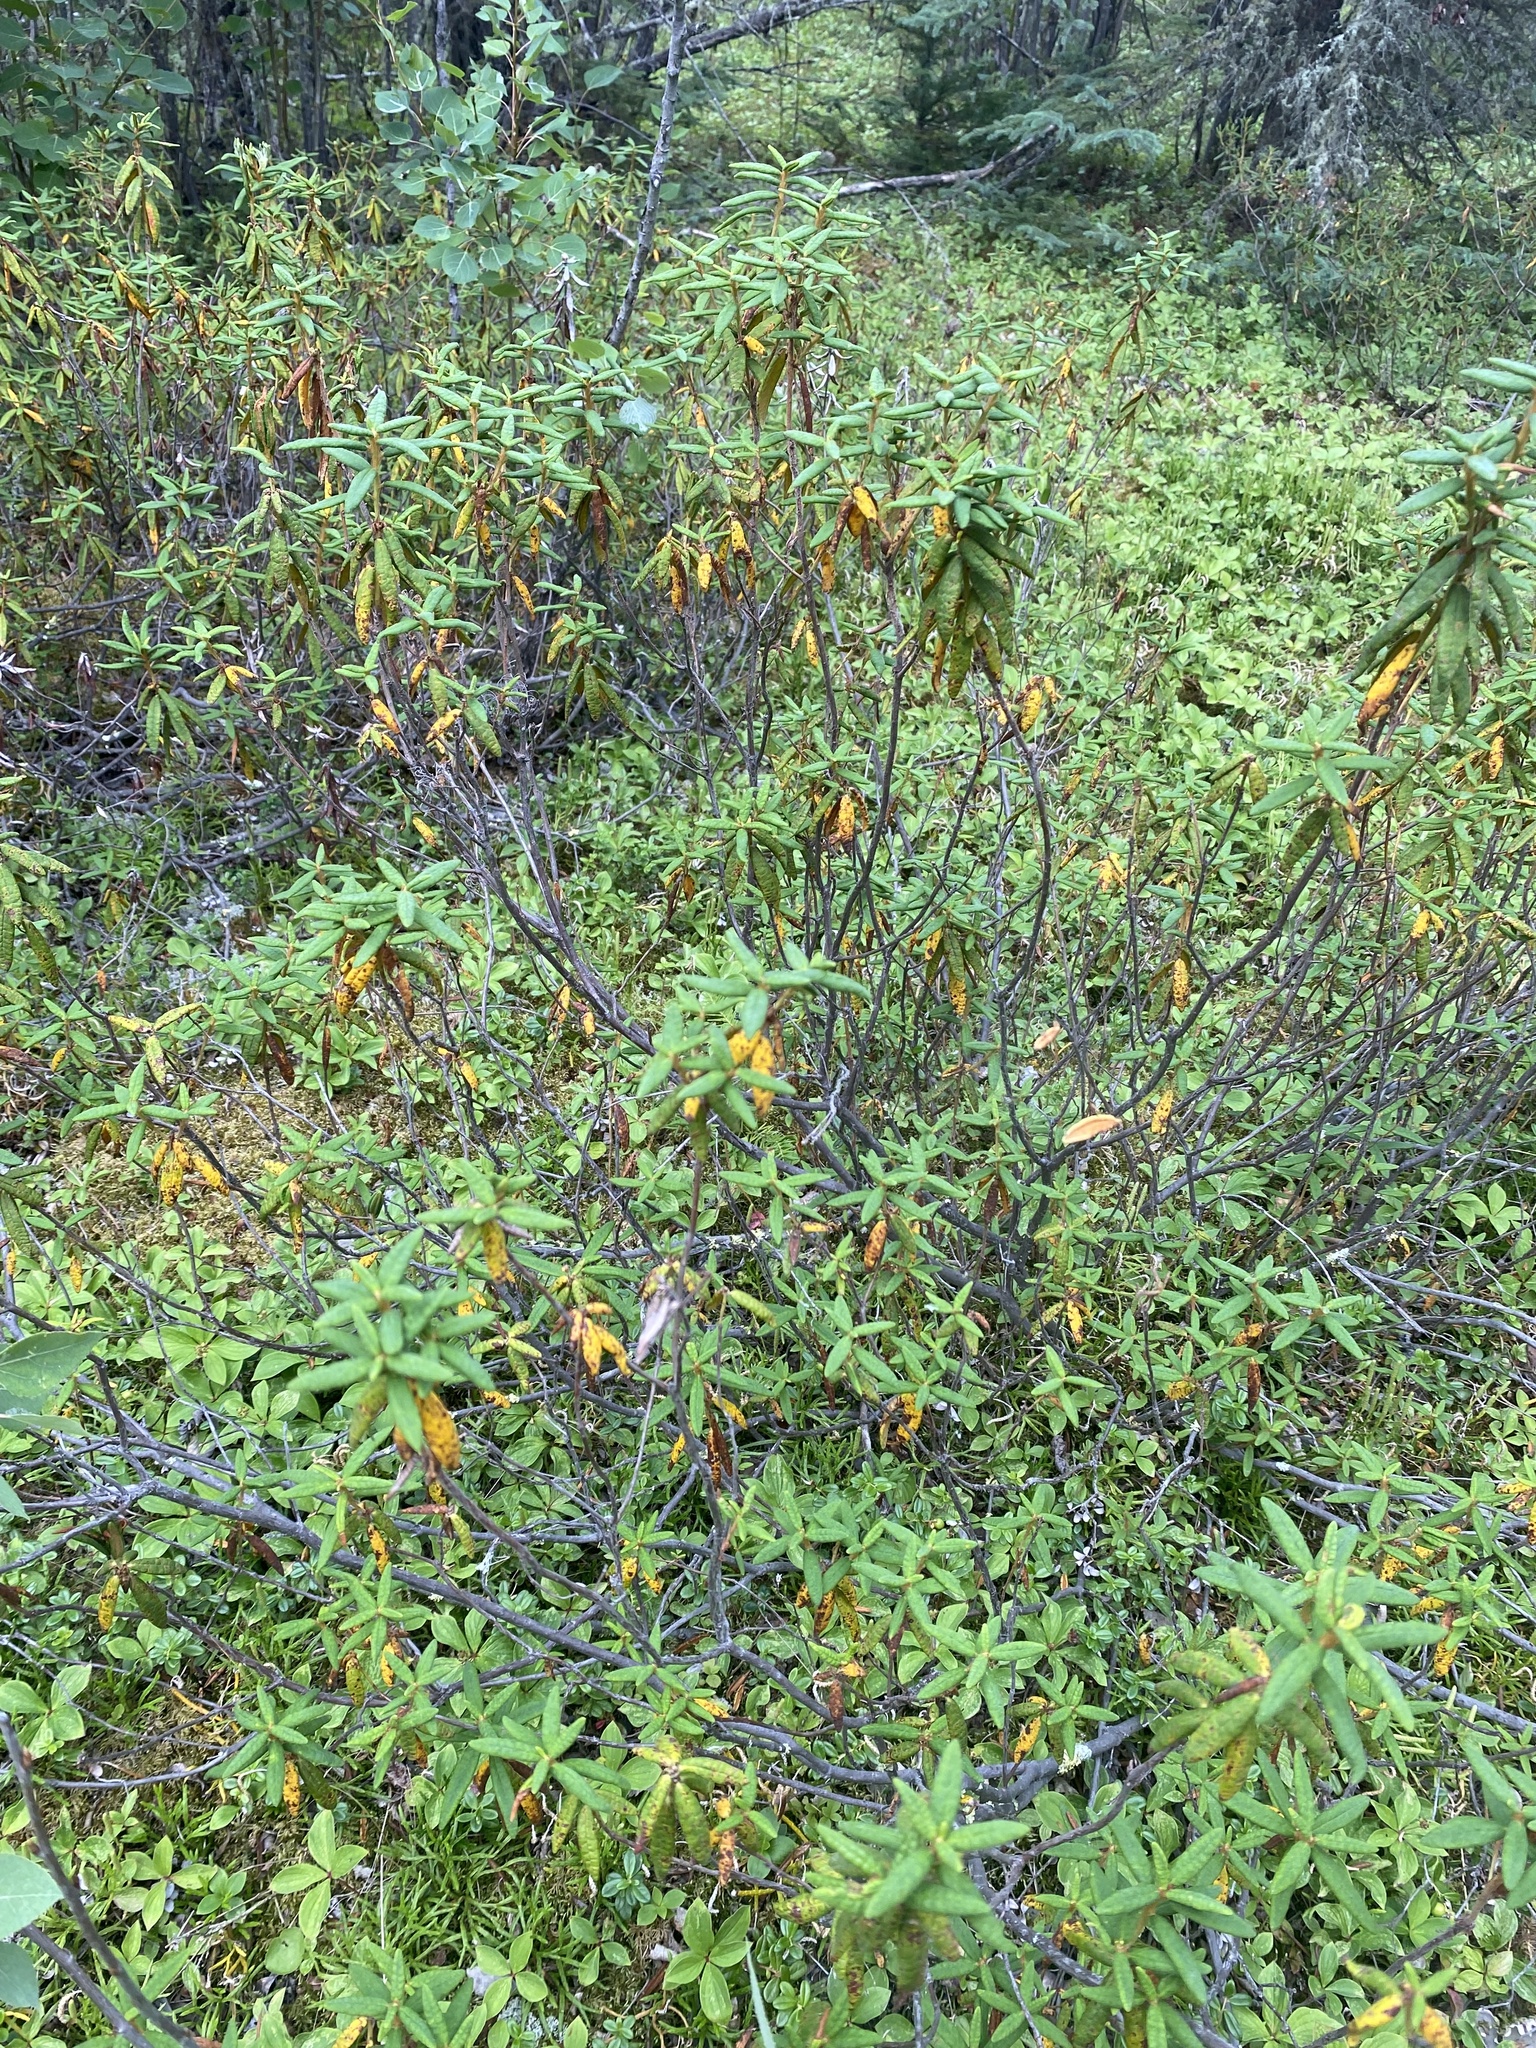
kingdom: Plantae
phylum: Tracheophyta
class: Magnoliopsida
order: Ericales
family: Ericaceae
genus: Rhododendron
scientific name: Rhododendron groenlandicum
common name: Bog labrador tea
